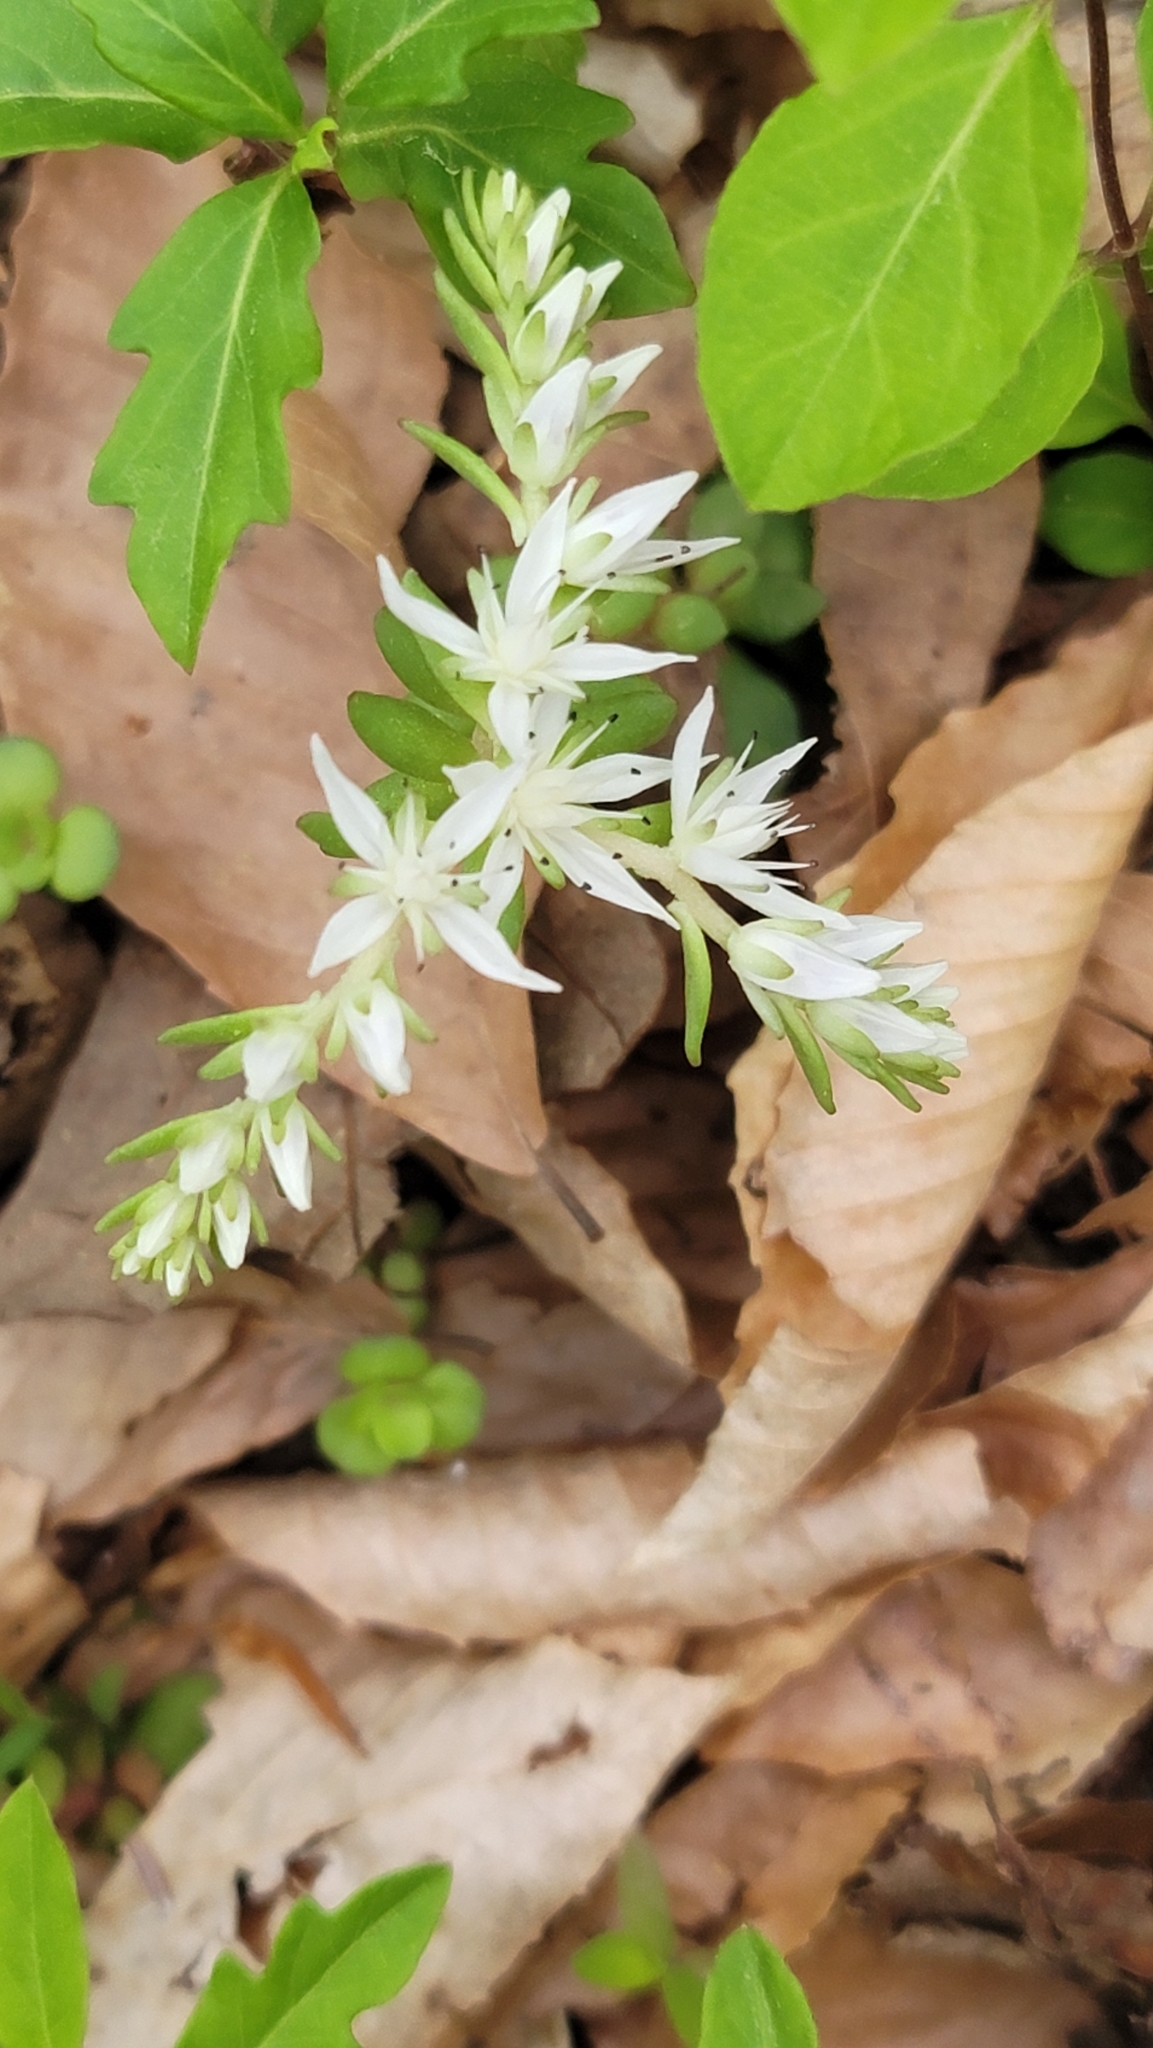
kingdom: Plantae
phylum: Tracheophyta
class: Magnoliopsida
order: Saxifragales
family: Crassulaceae
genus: Sedum
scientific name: Sedum ternatum
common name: Wild stonecrop
